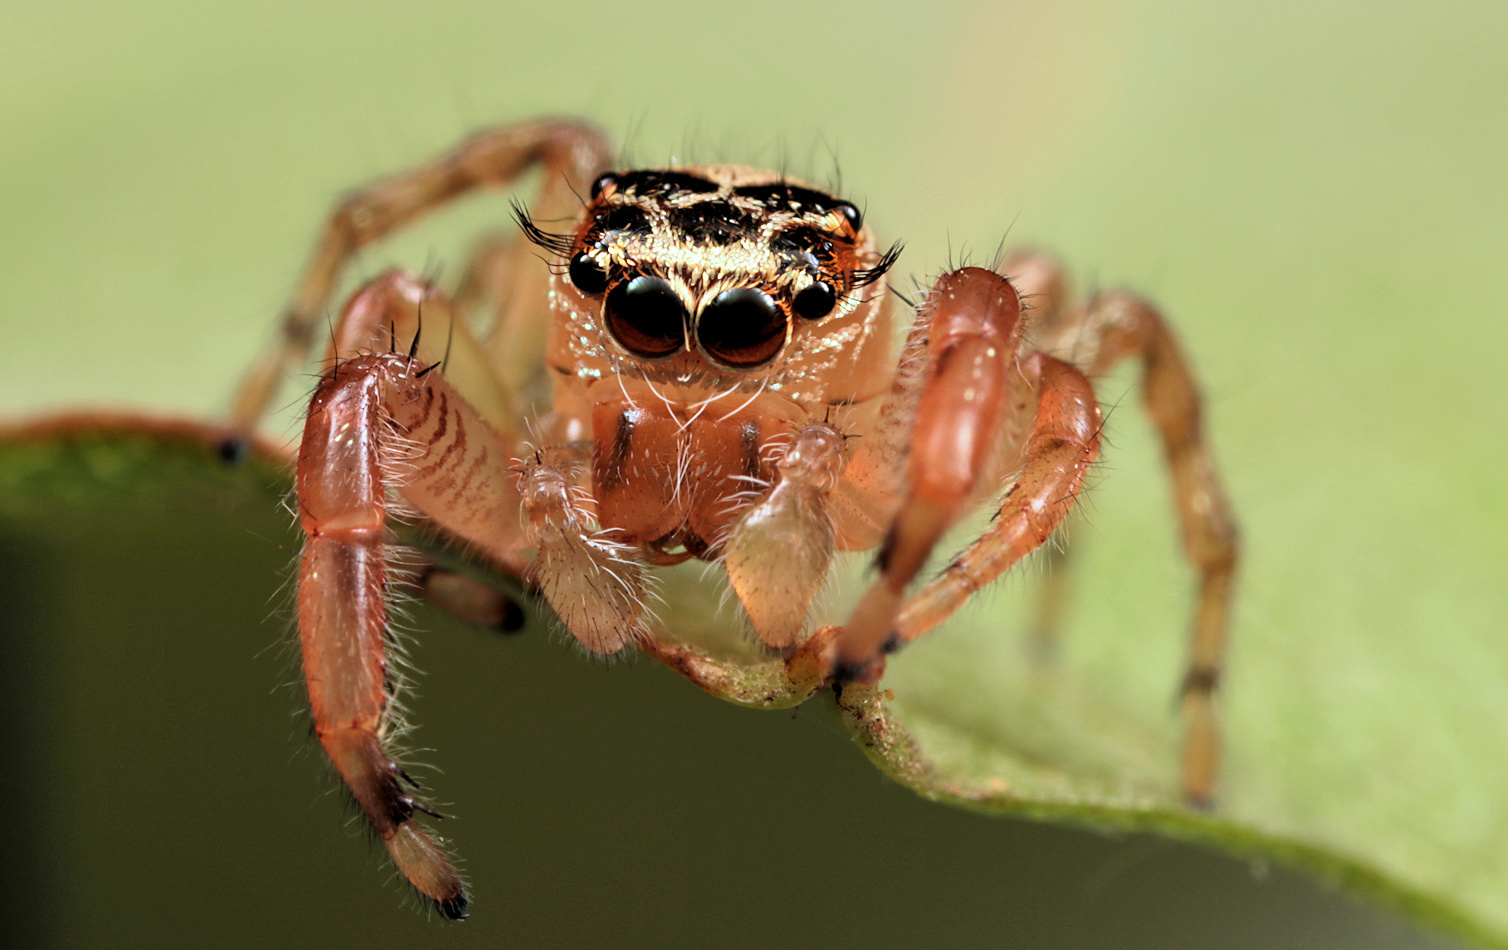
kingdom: Animalia
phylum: Arthropoda
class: Arachnida
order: Araneae
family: Salticidae
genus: Thyene
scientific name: Thyene natalii
